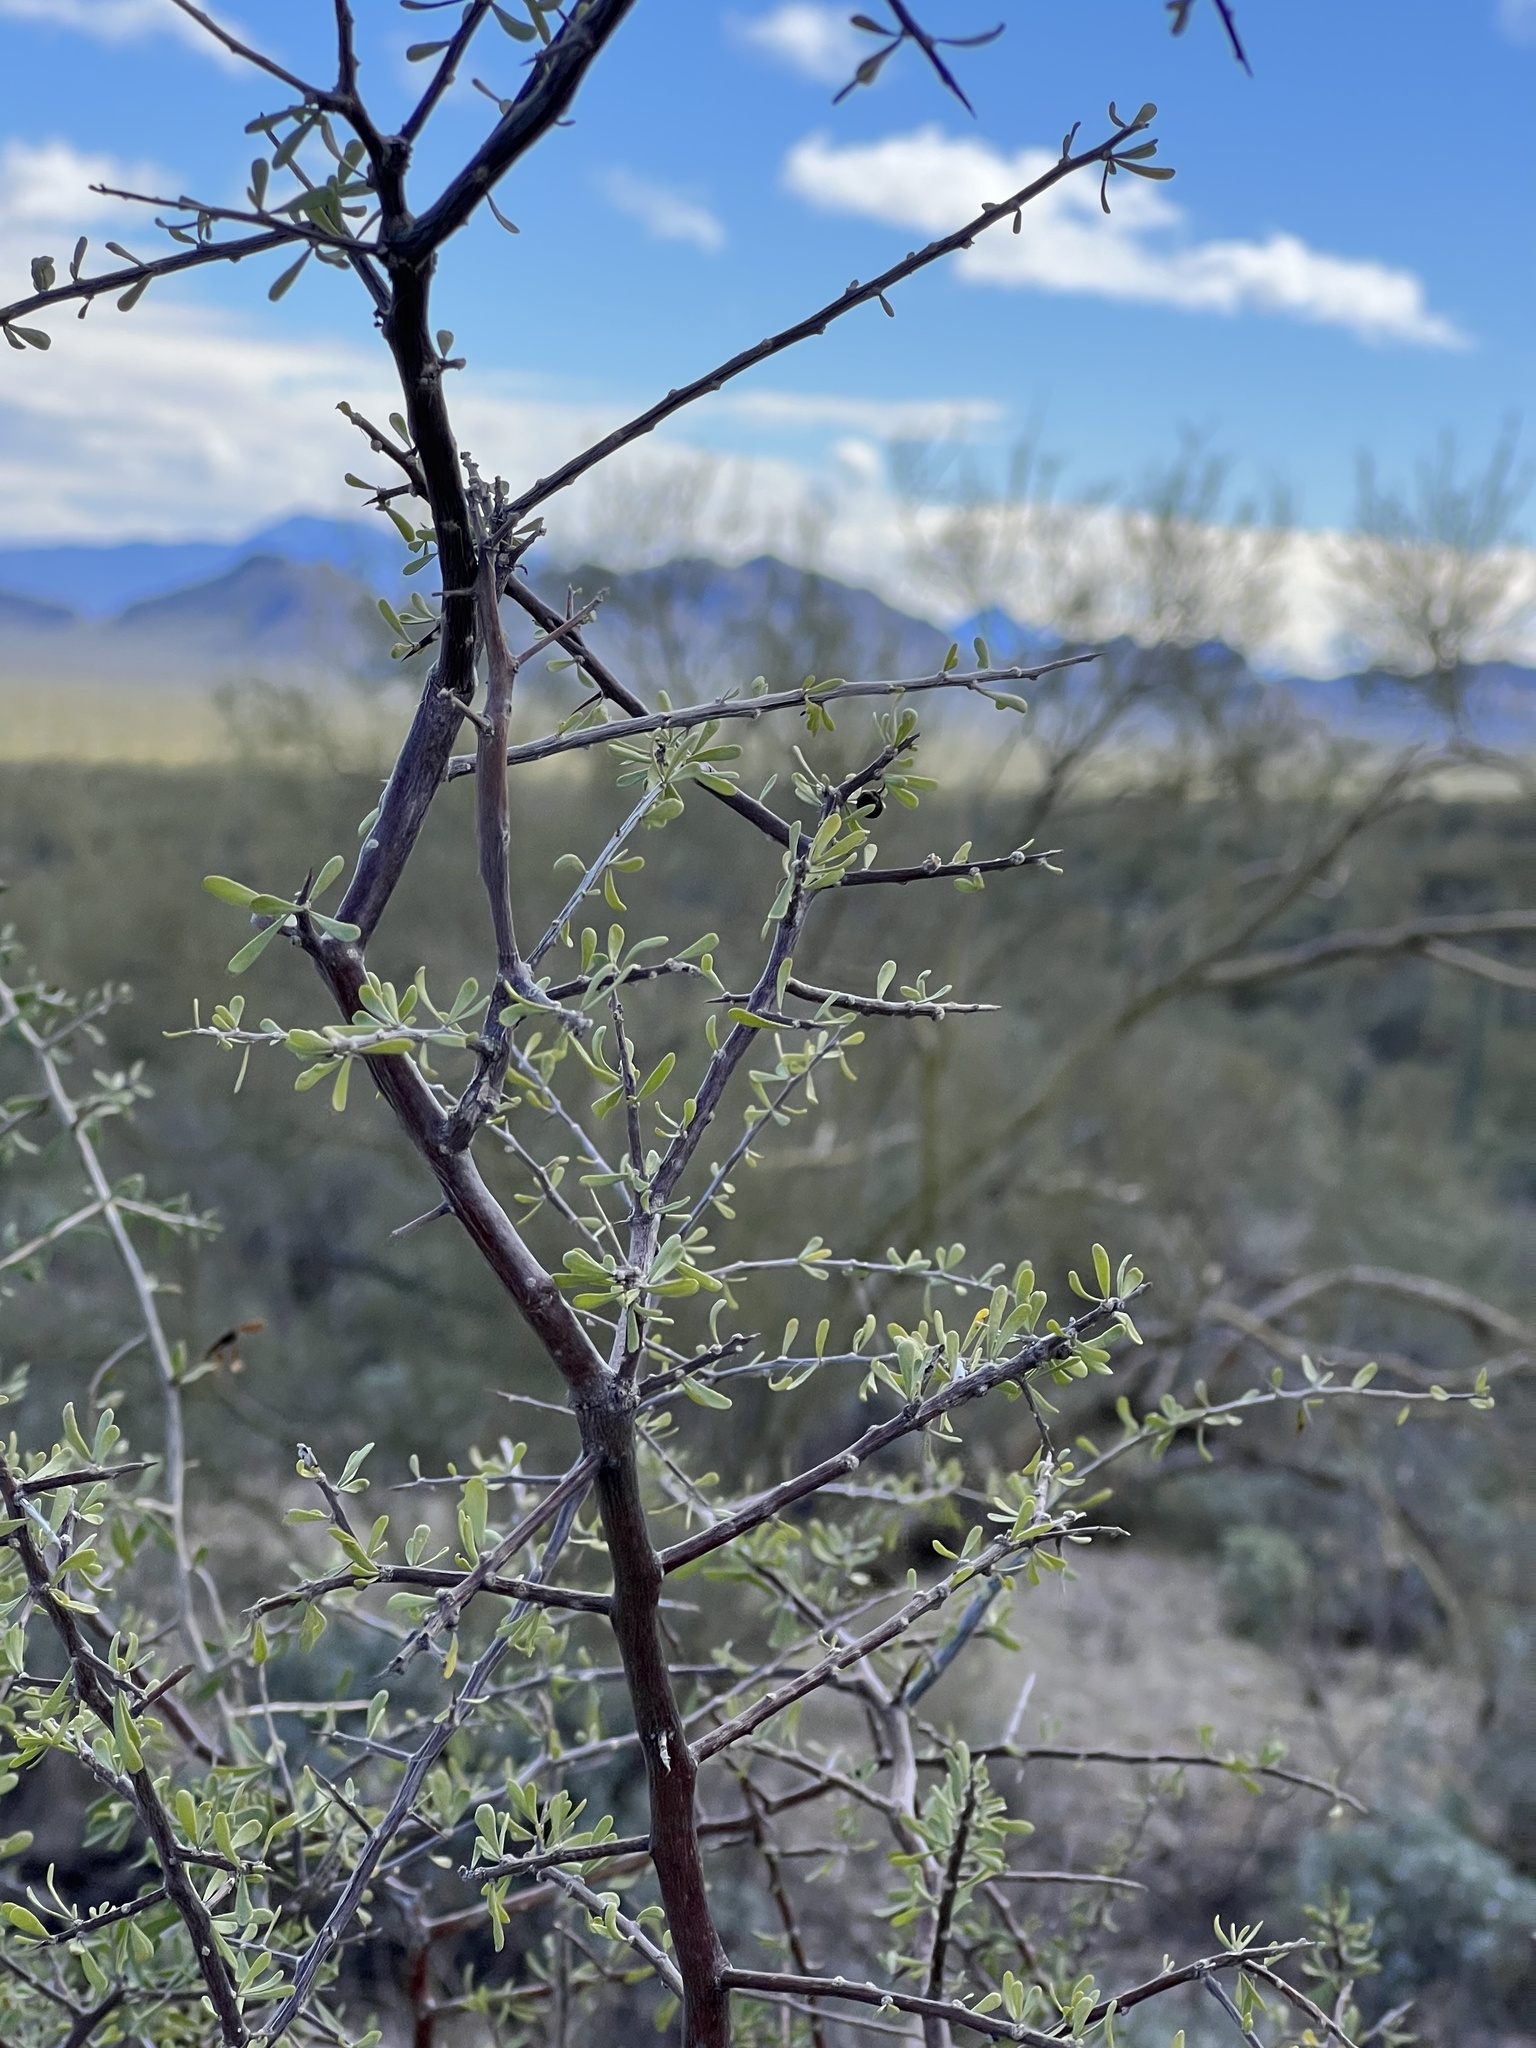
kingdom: Plantae
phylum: Tracheophyta
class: Magnoliopsida
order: Solanales
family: Solanaceae
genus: Lycium
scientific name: Lycium berlandieri
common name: Berlandier wolfberry
